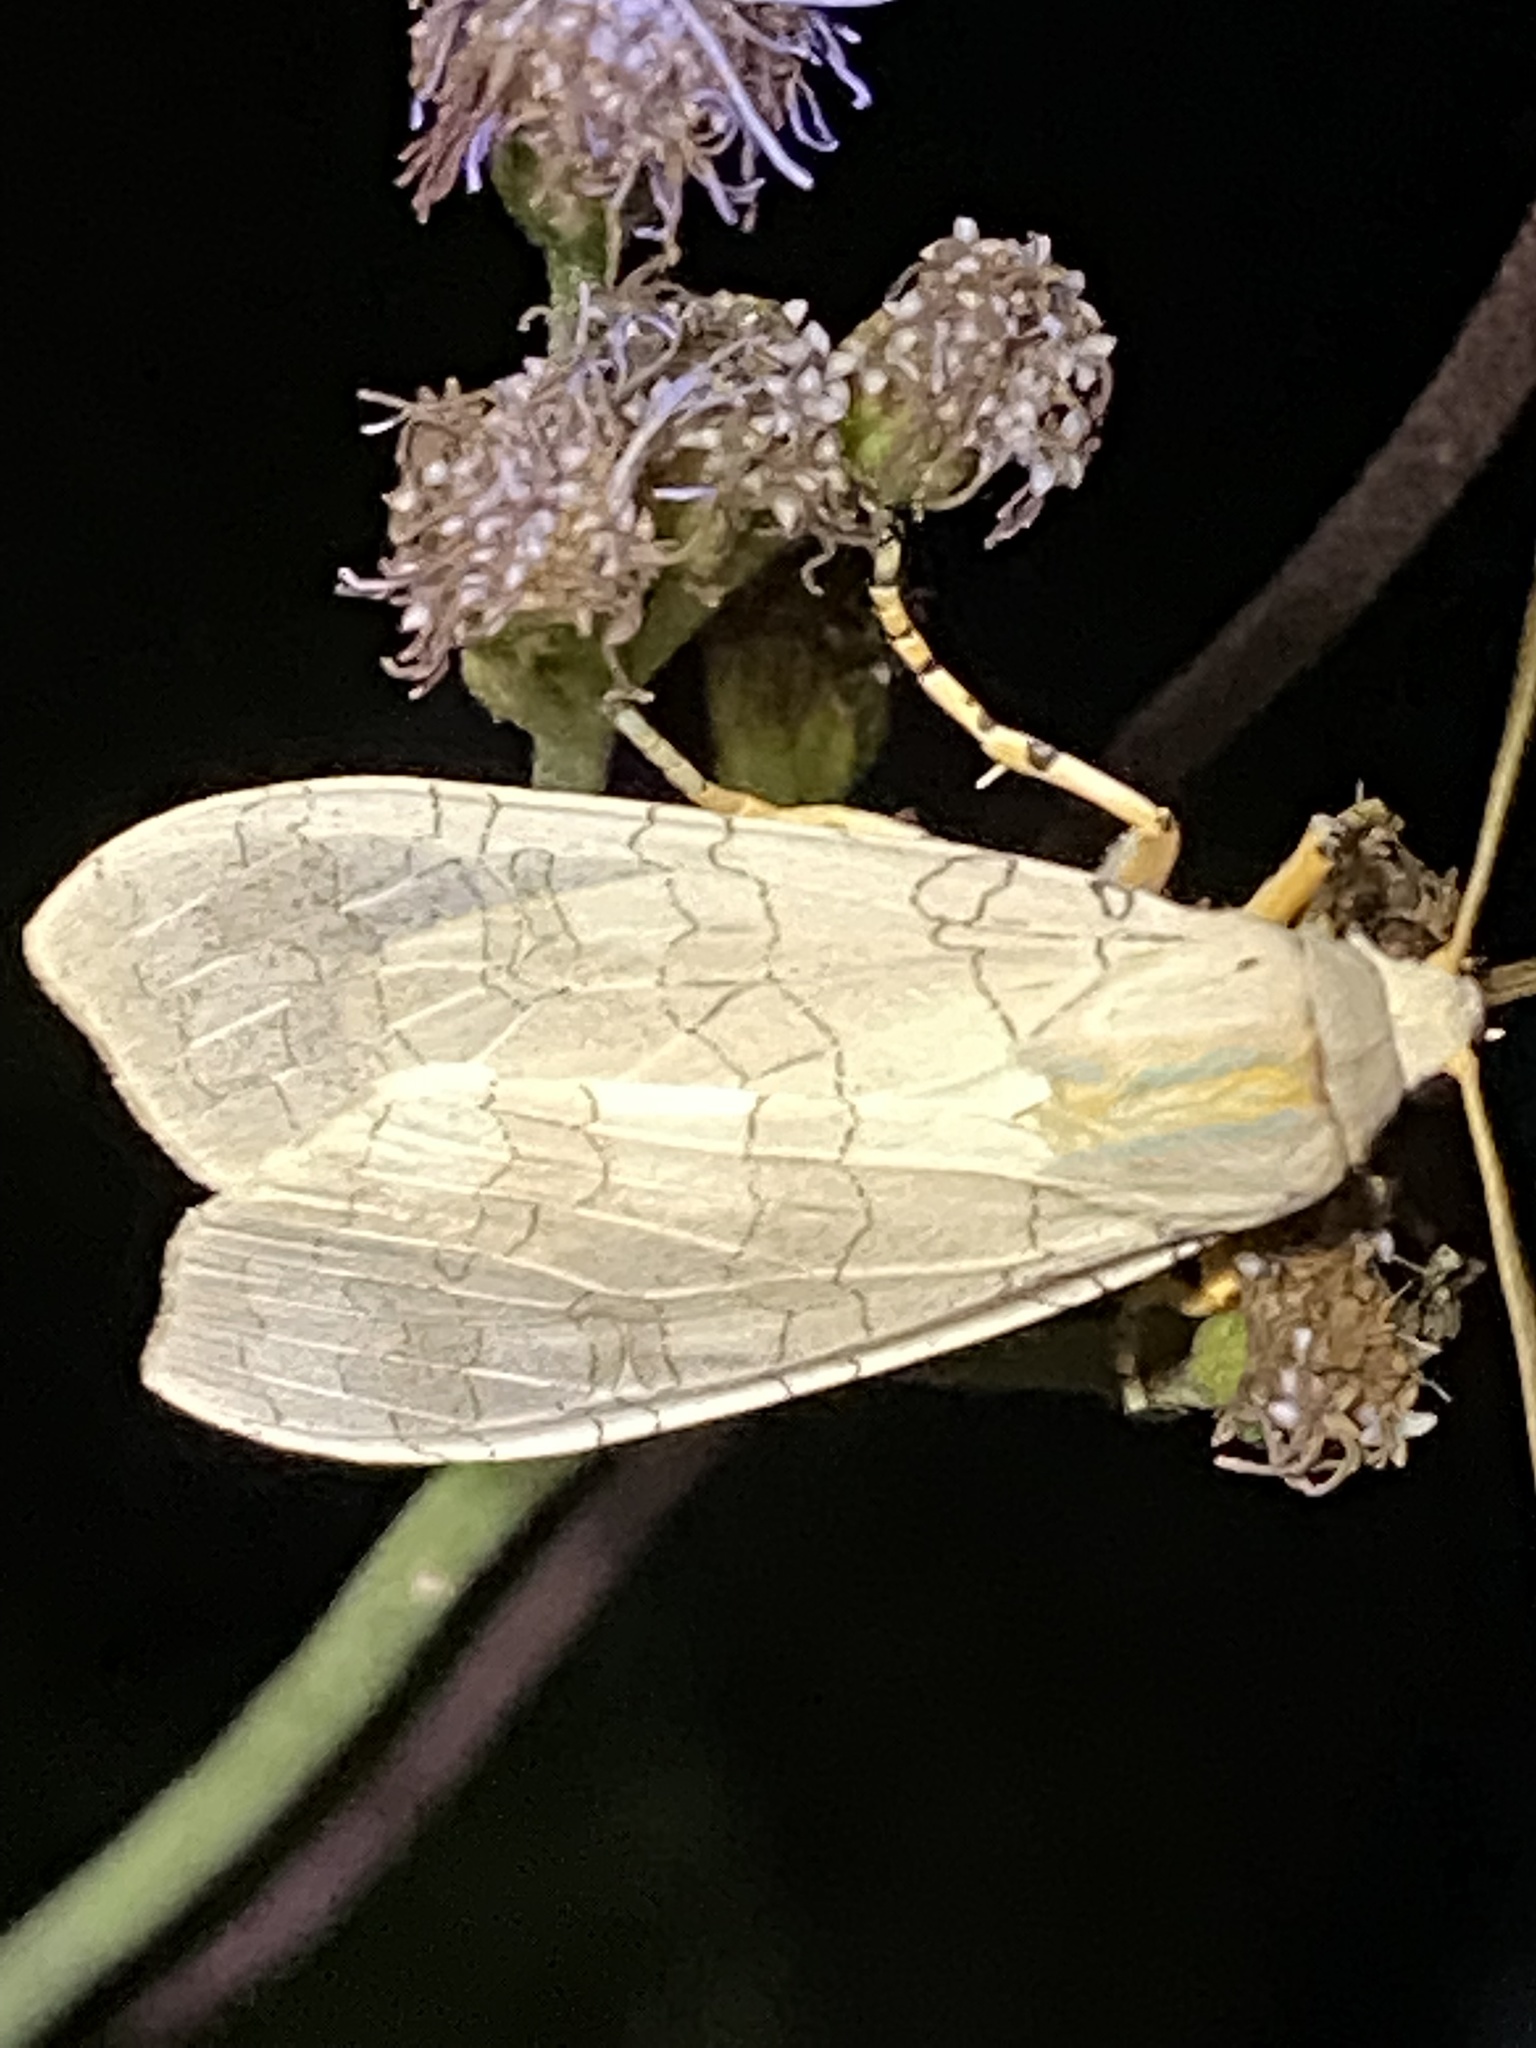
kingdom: Animalia
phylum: Arthropoda
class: Insecta
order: Lepidoptera
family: Erebidae
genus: Halysidota
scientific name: Halysidota
